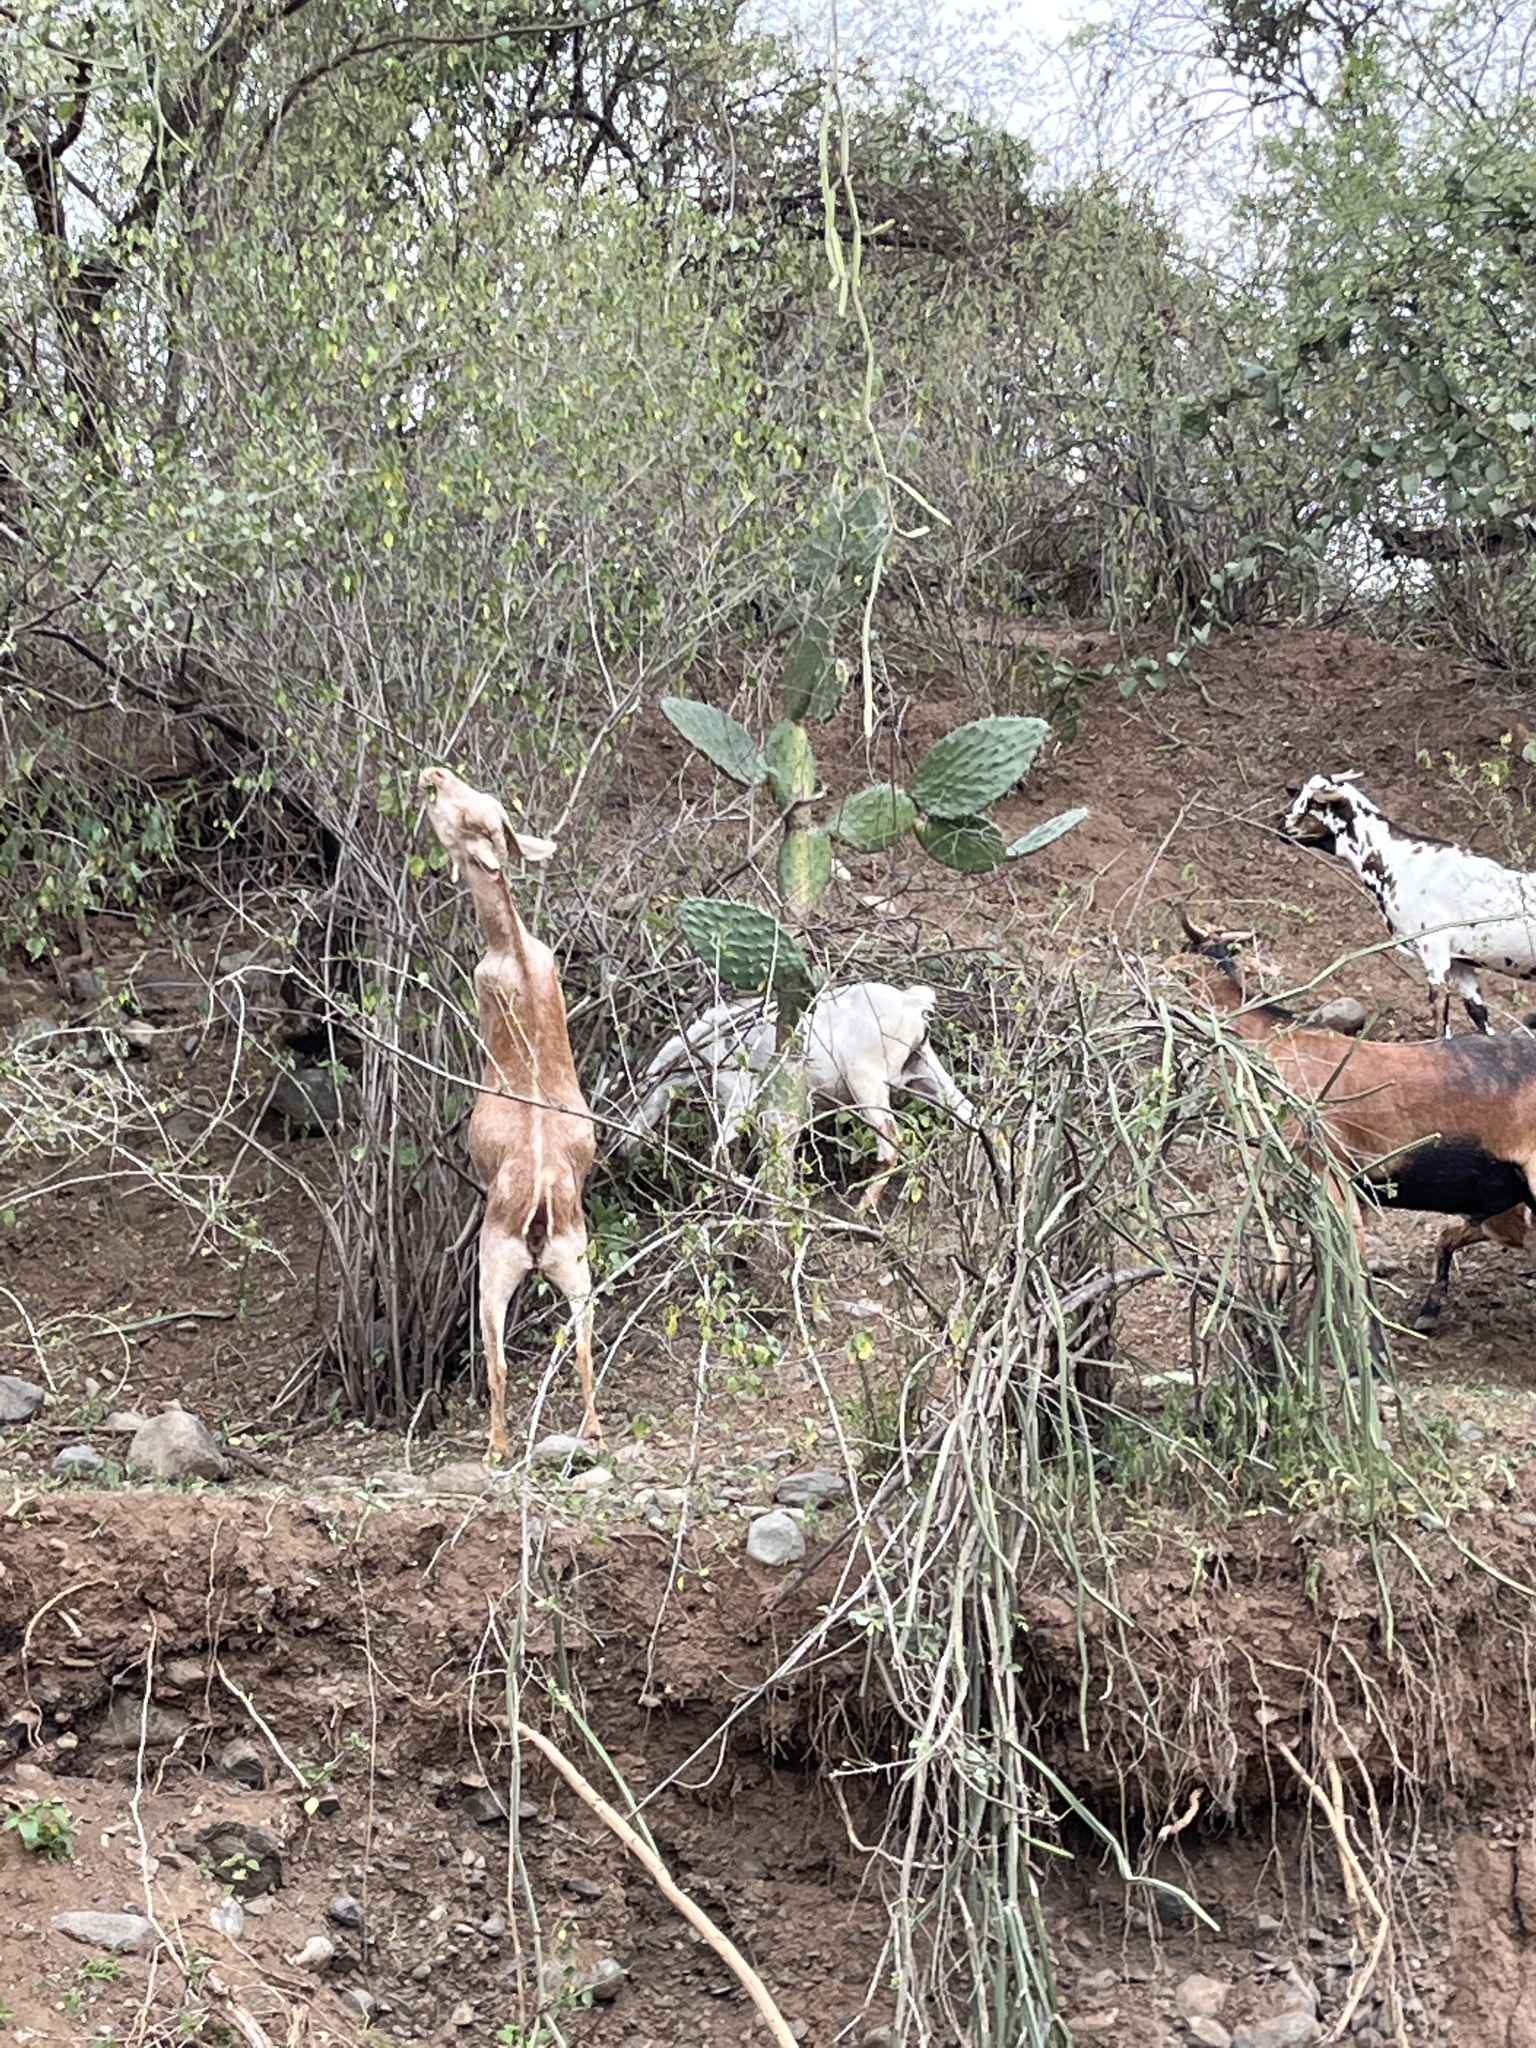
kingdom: Animalia
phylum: Chordata
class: Mammalia
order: Artiodactyla
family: Bovidae
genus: Capra
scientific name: Capra hircus
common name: Domestic goat
